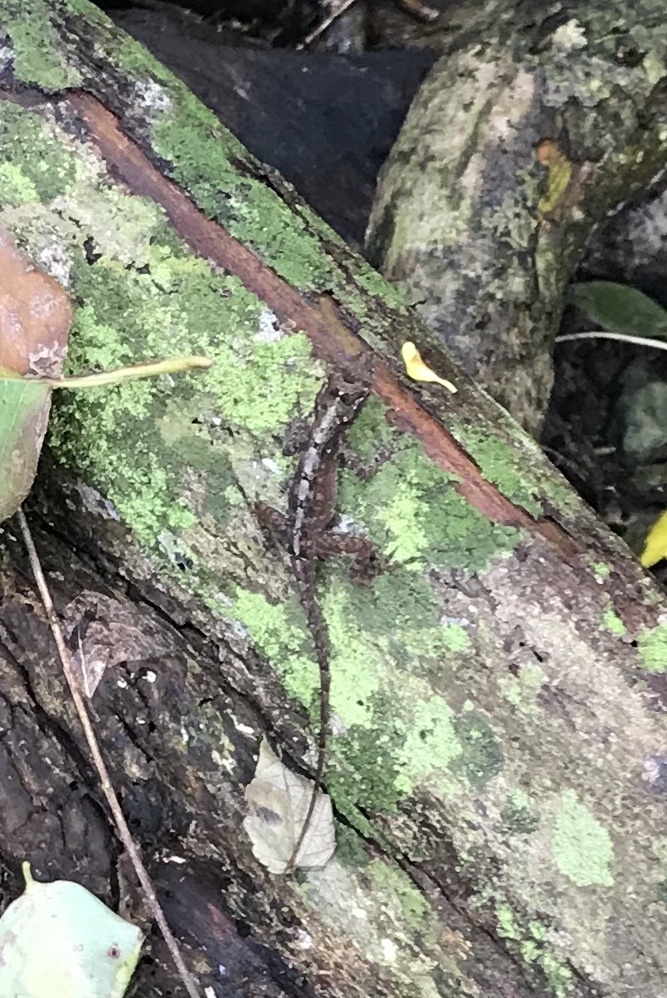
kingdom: Animalia
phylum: Chordata
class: Squamata
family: Dactyloidae
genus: Anolis
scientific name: Anolis cristatellus
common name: Crested anole
